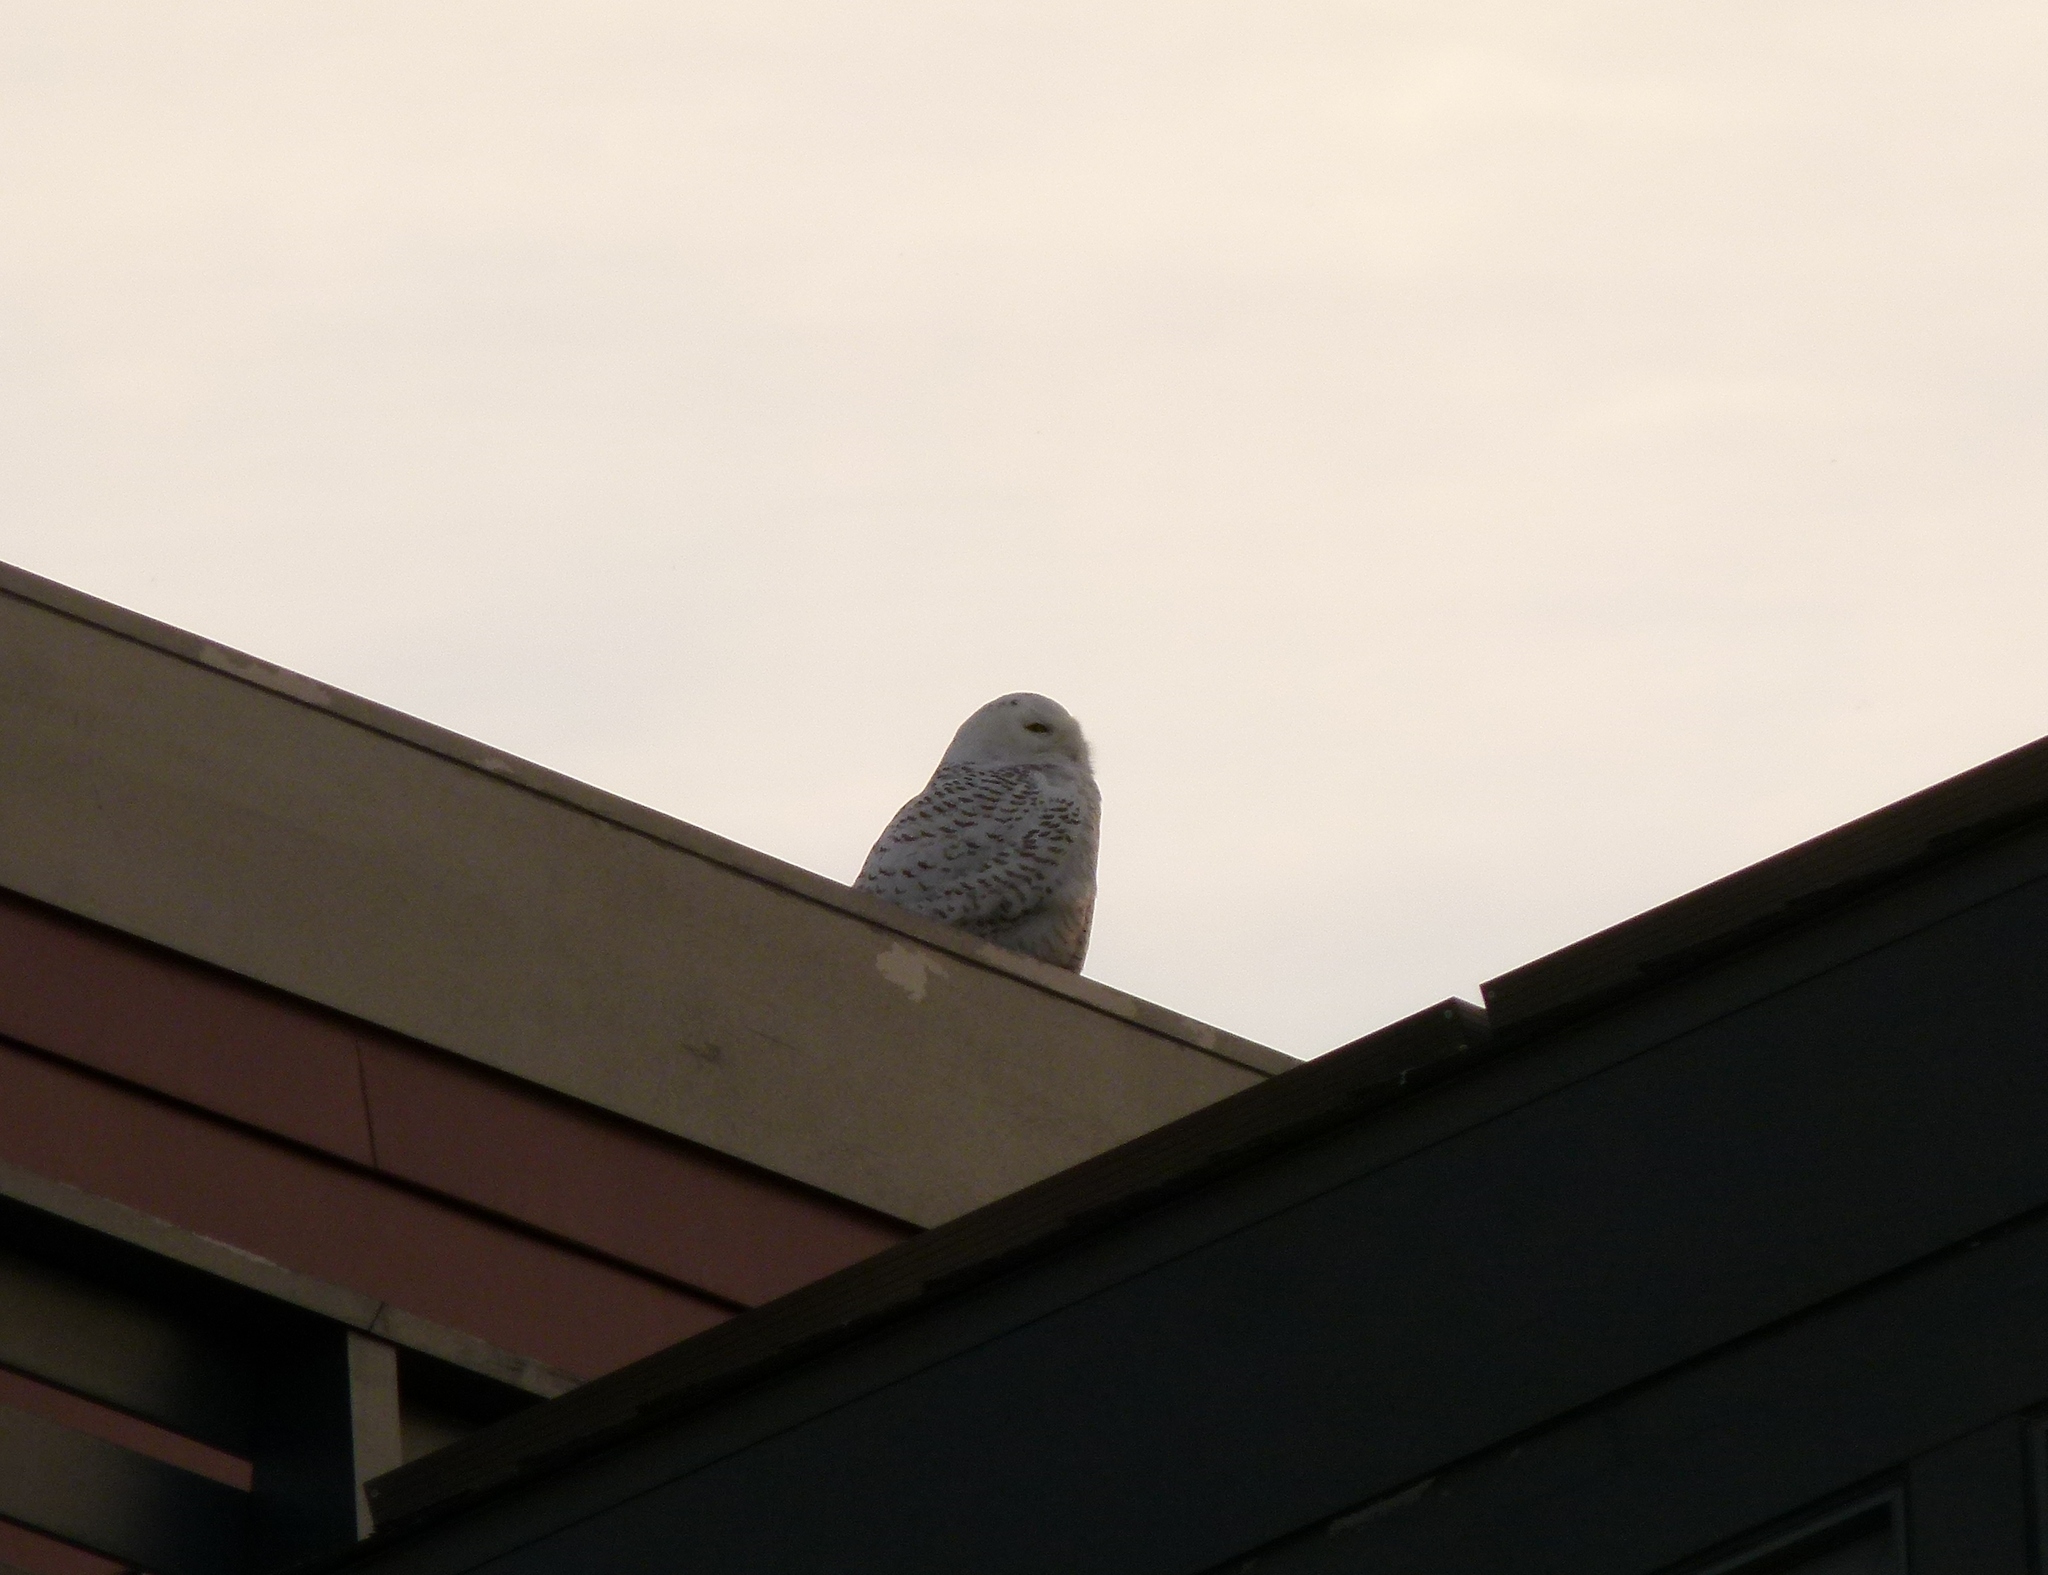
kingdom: Animalia
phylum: Chordata
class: Aves
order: Strigiformes
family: Strigidae
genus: Bubo
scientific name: Bubo scandiacus
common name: Snowy owl
